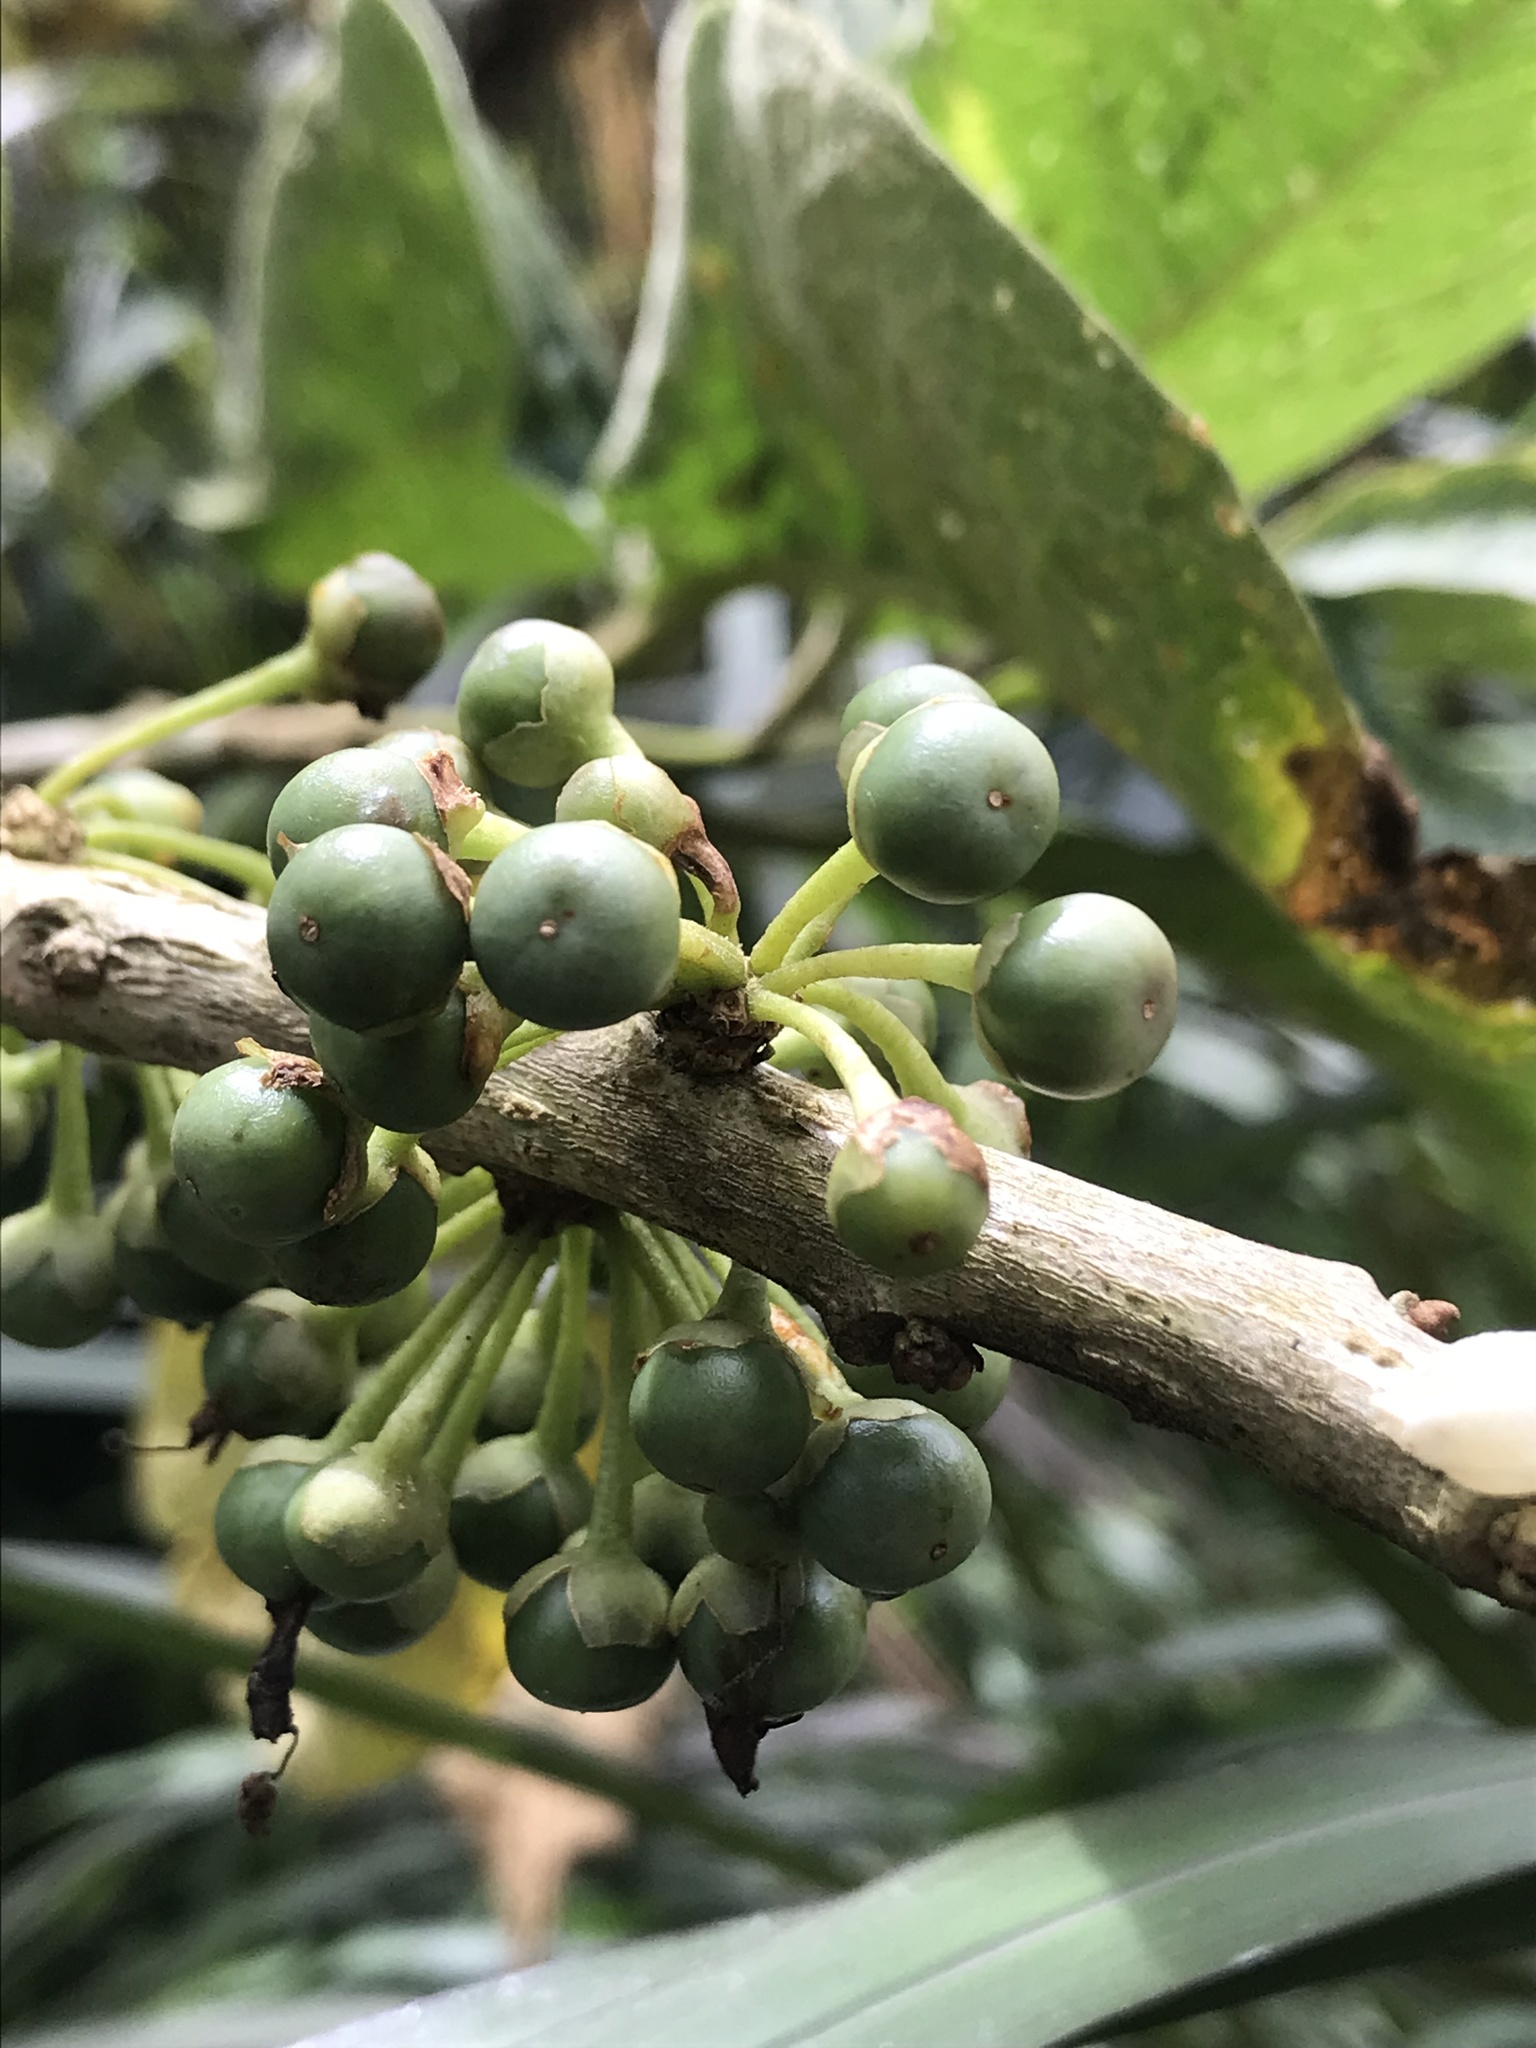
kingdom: Plantae
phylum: Tracheophyta
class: Magnoliopsida
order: Solanales
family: Solanaceae
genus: Iochroma
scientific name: Iochroma arborescens
